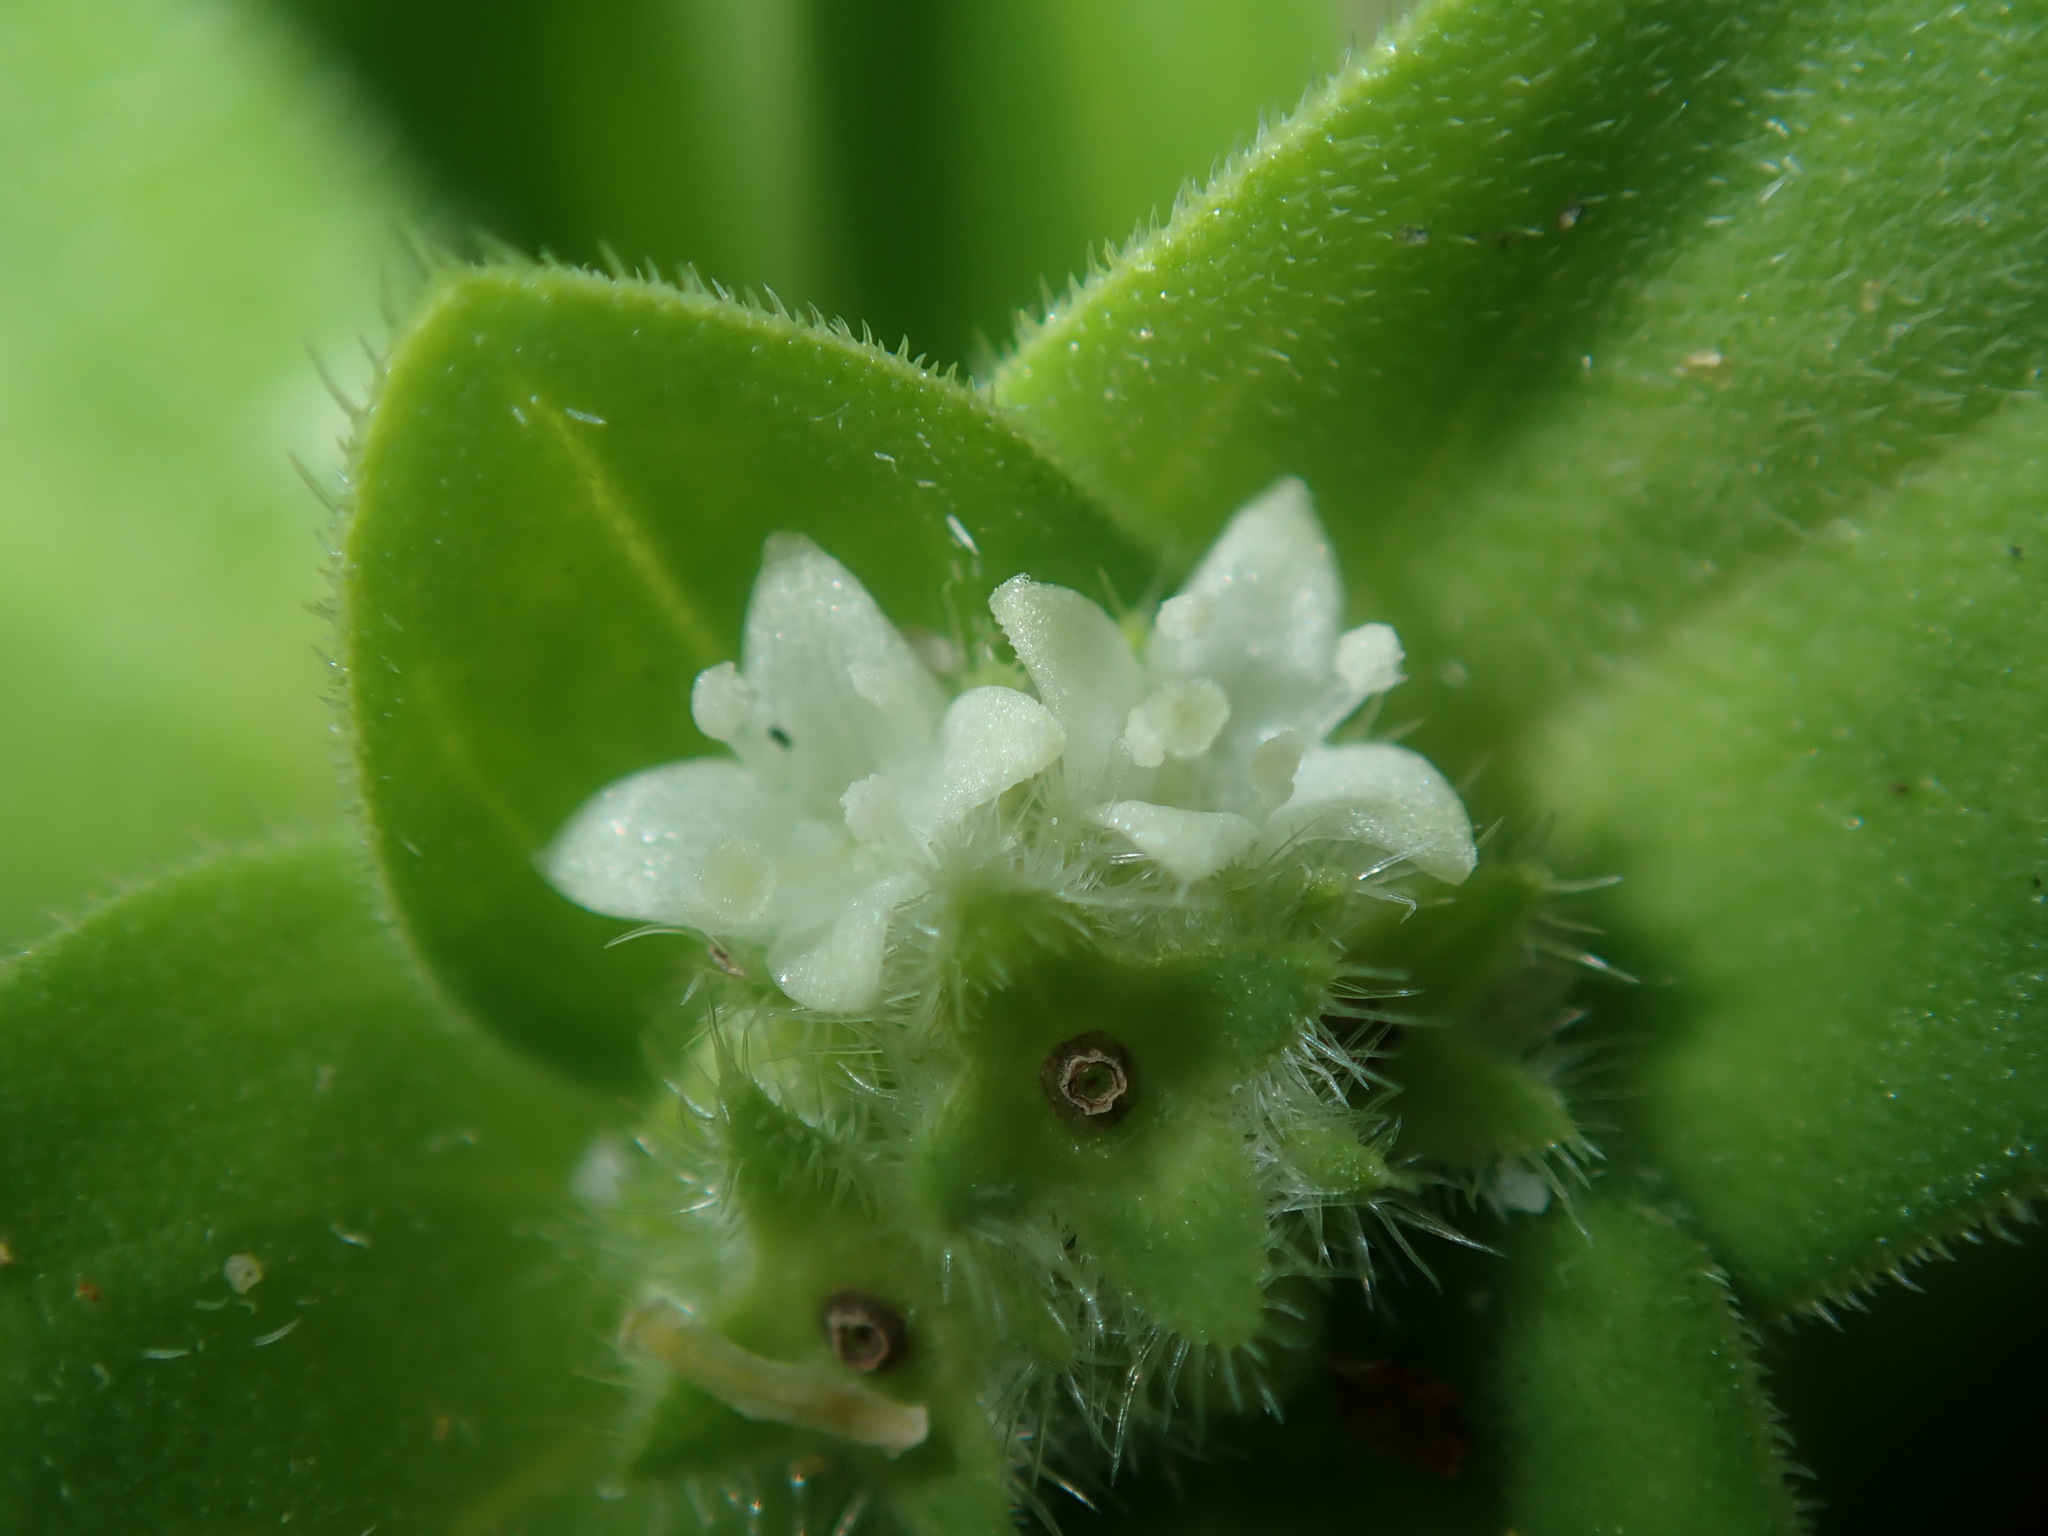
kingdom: Plantae
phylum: Tracheophyta
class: Magnoliopsida
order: Gentianales
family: Rubiaceae
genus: Richardia
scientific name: Richardia humistrata
